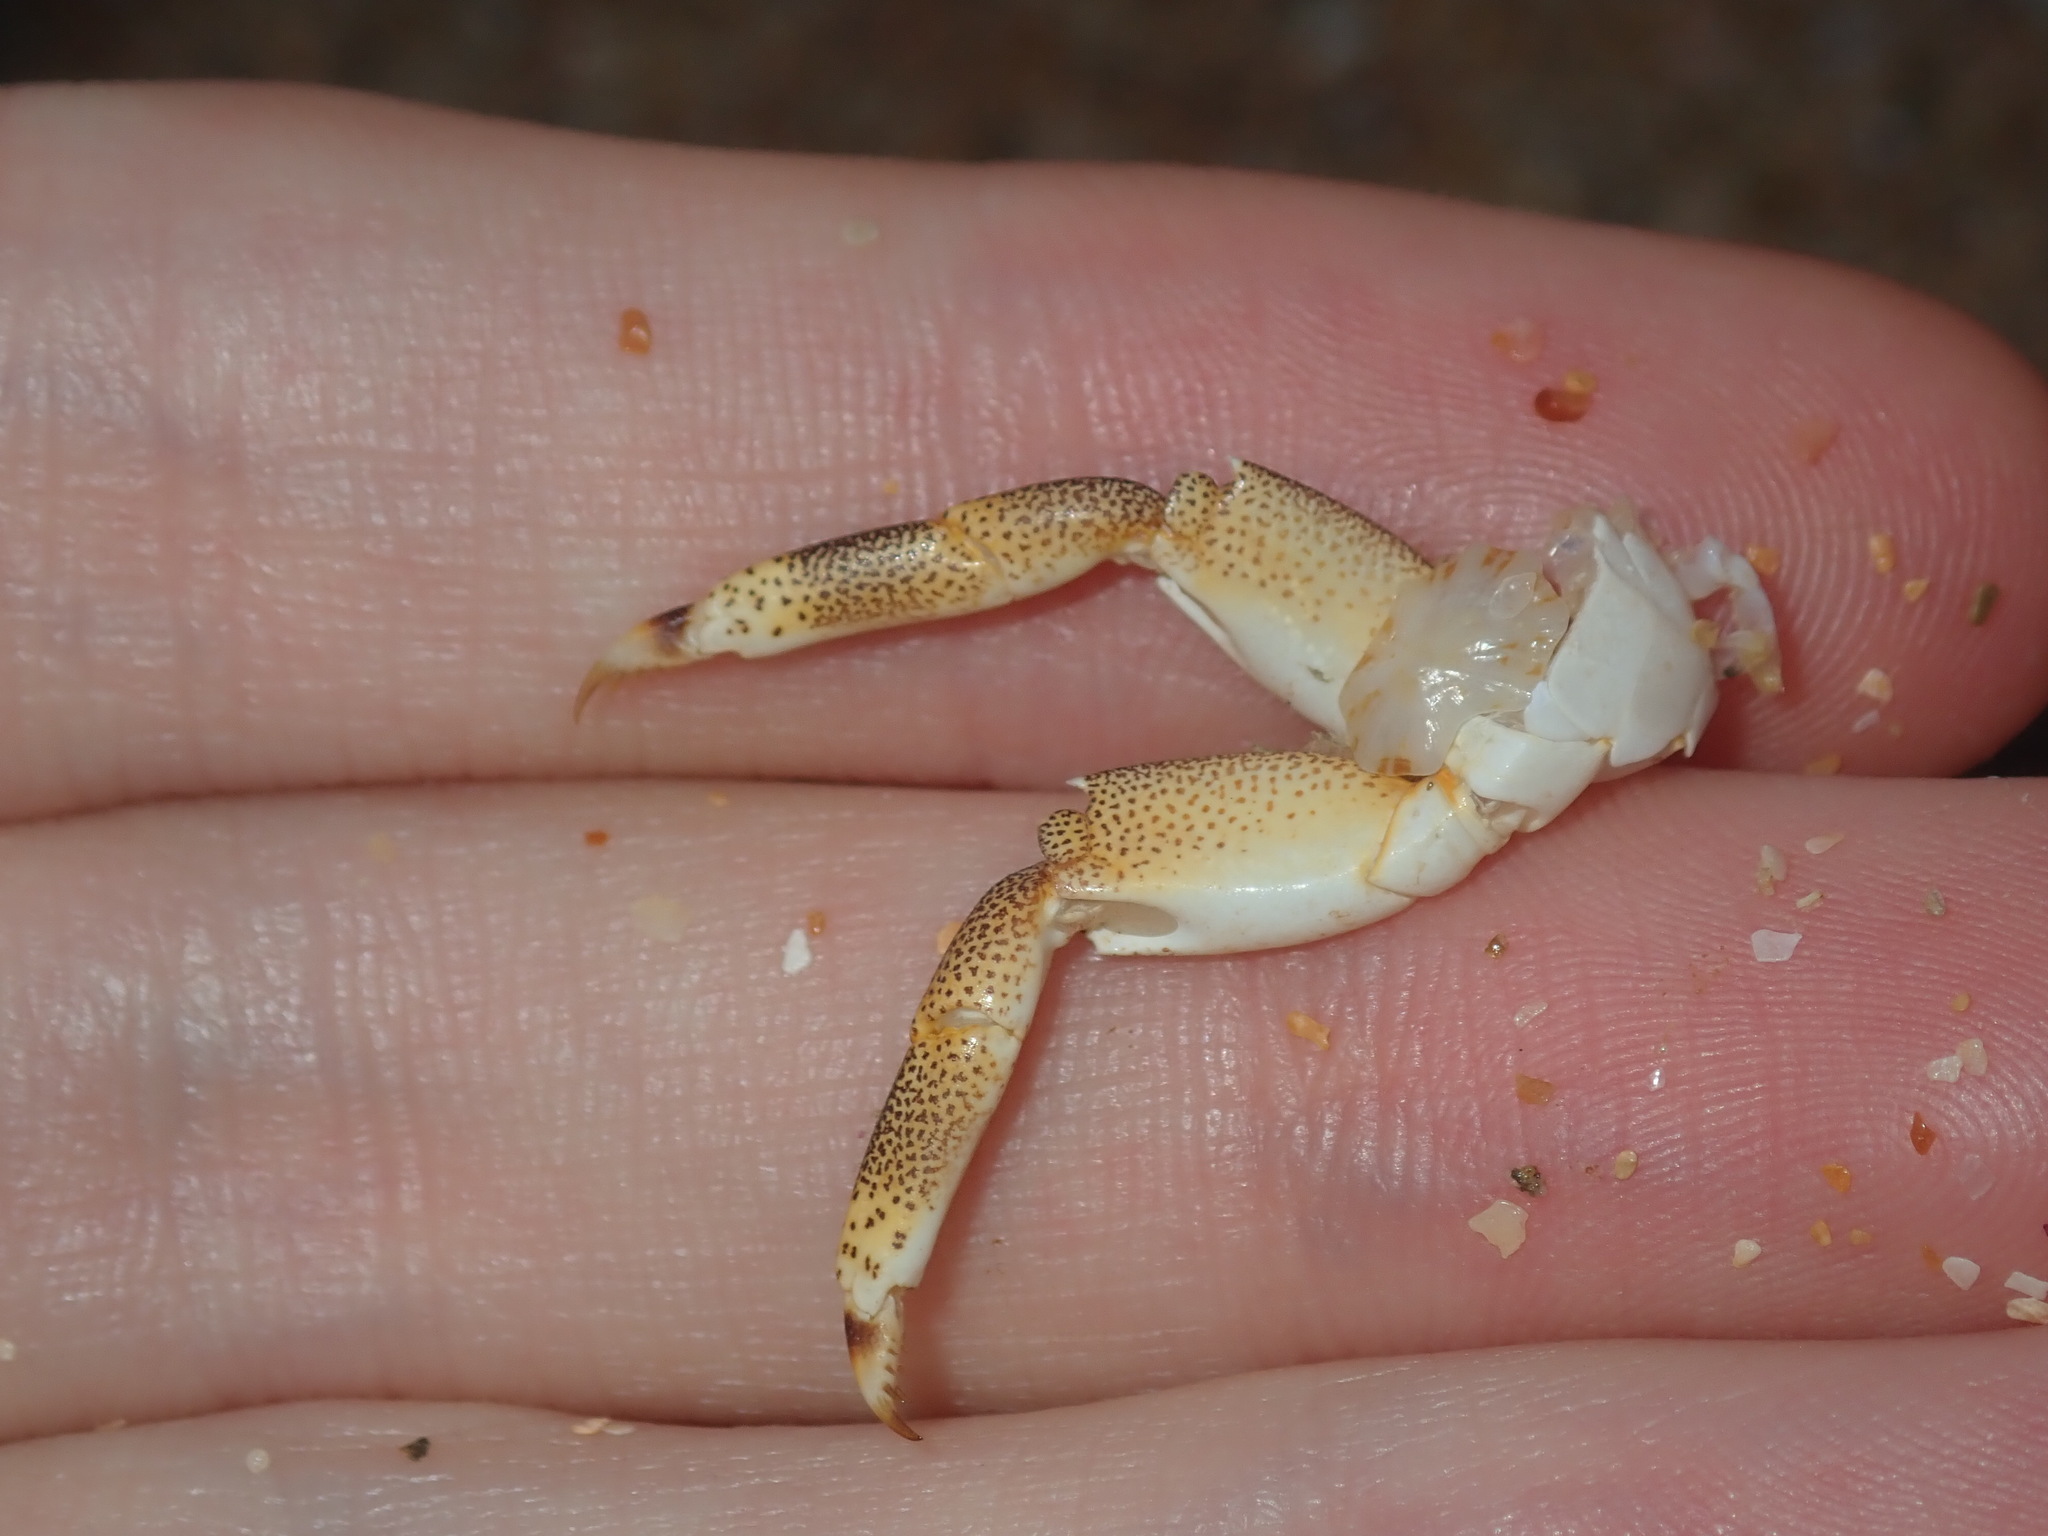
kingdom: Animalia
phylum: Arthropoda
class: Malacostraca
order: Decapoda
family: Plagusiidae
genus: Davusia
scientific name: Davusia glabra
